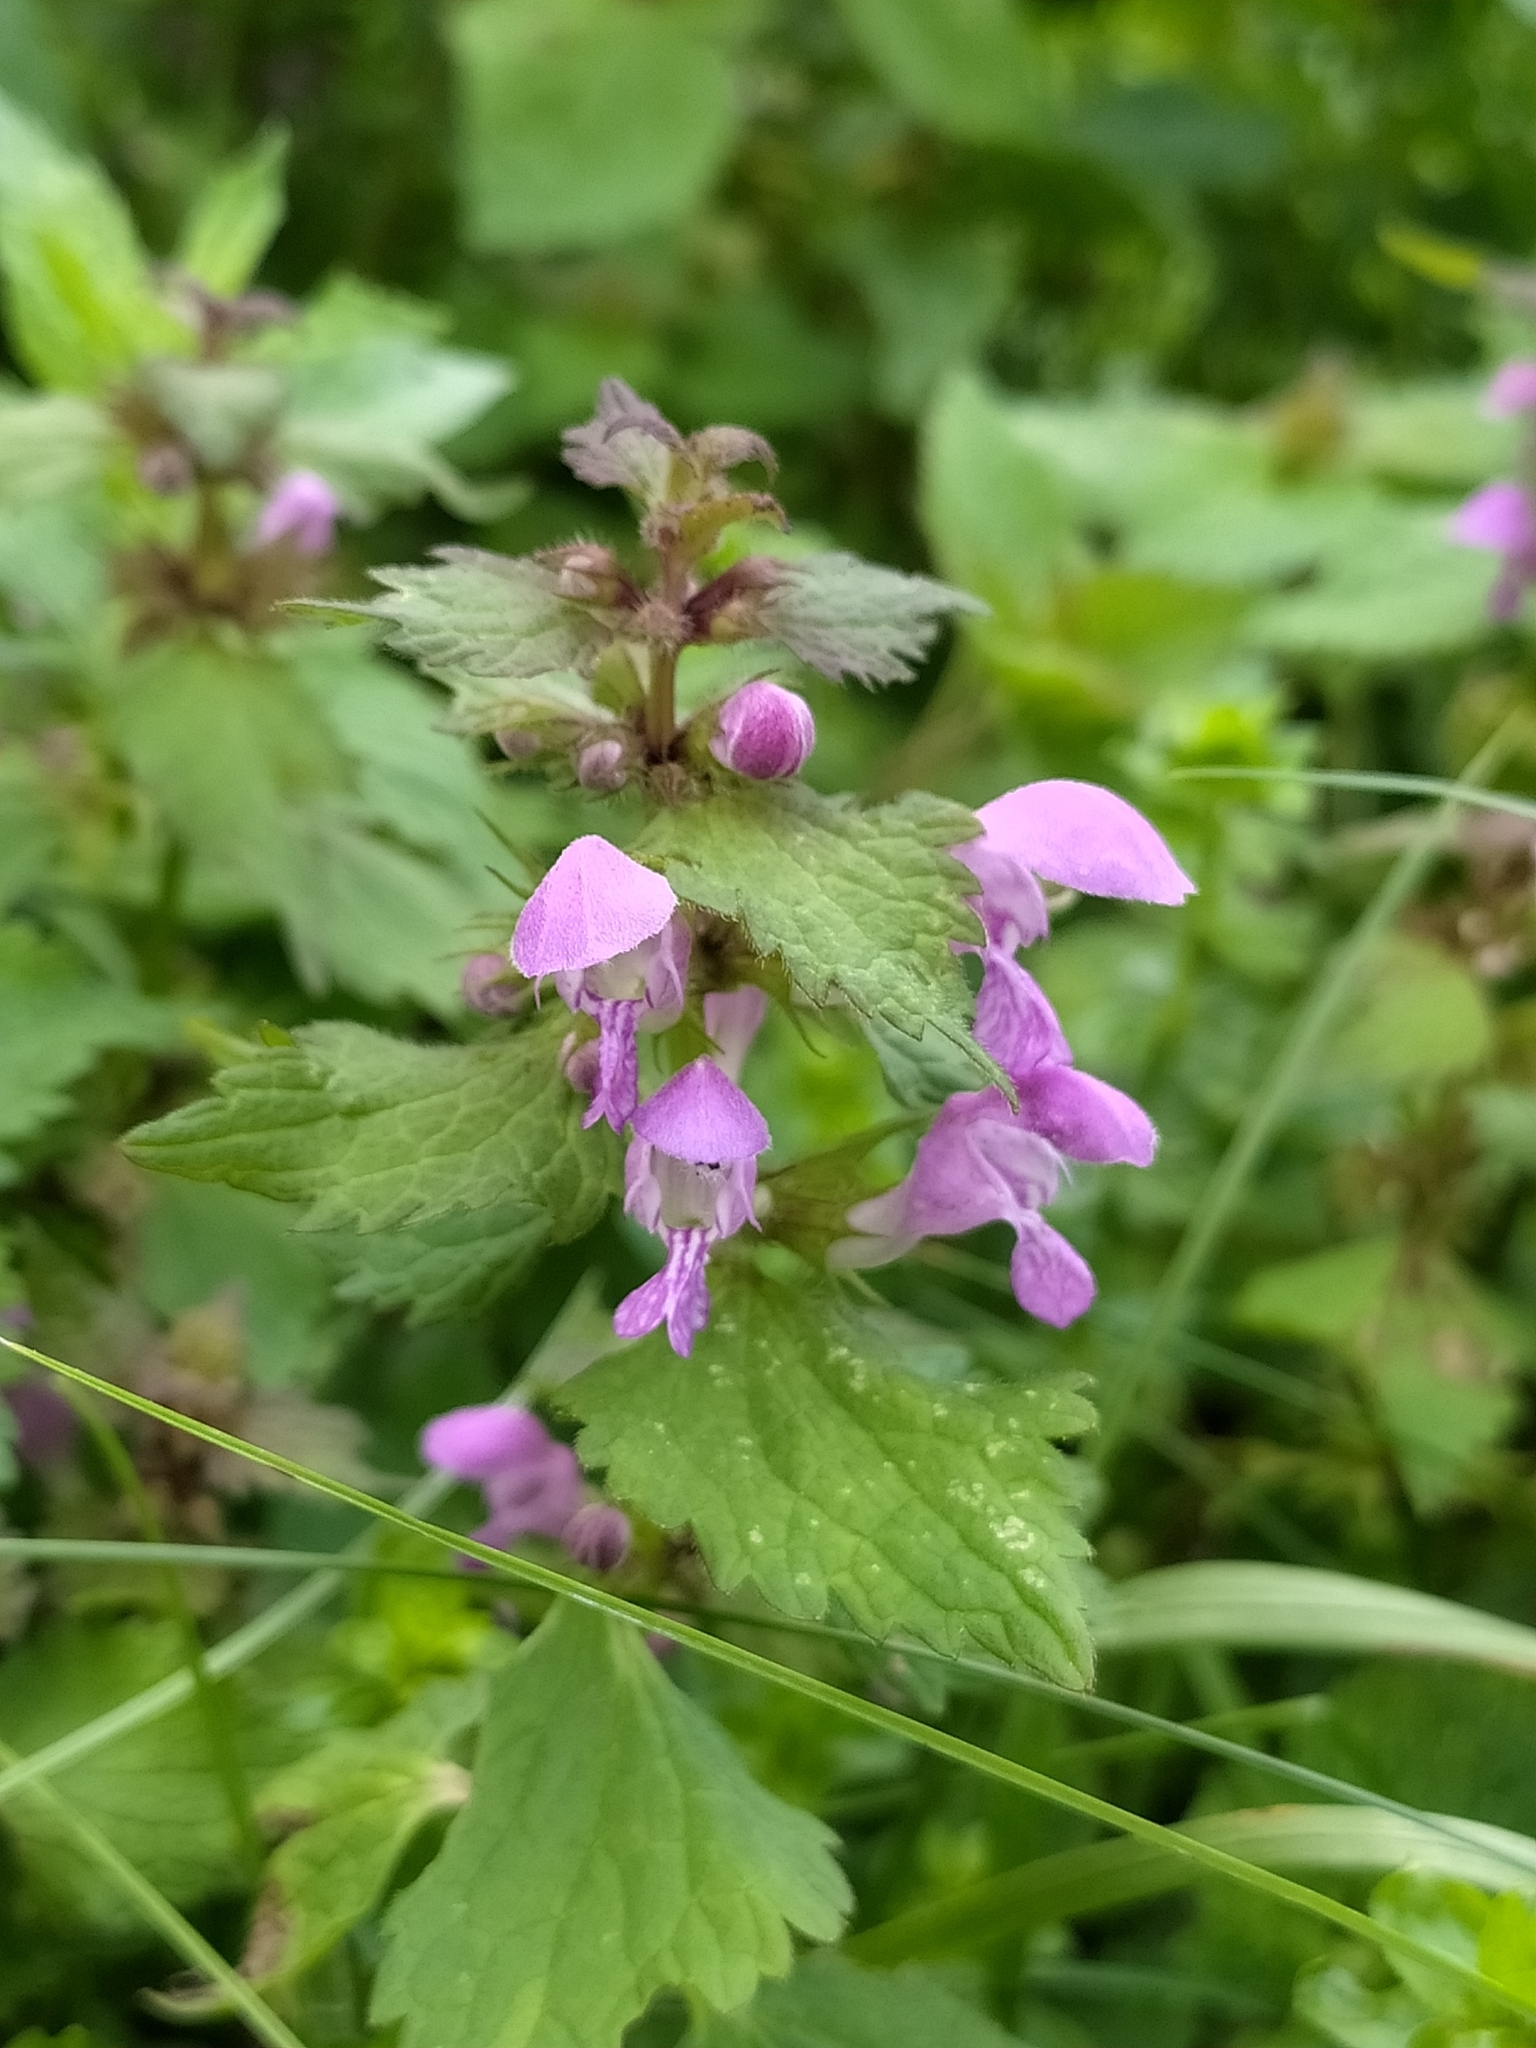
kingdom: Plantae
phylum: Tracheophyta
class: Magnoliopsida
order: Lamiales
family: Lamiaceae
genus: Lamium
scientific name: Lamium maculatum
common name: Spotted dead-nettle
